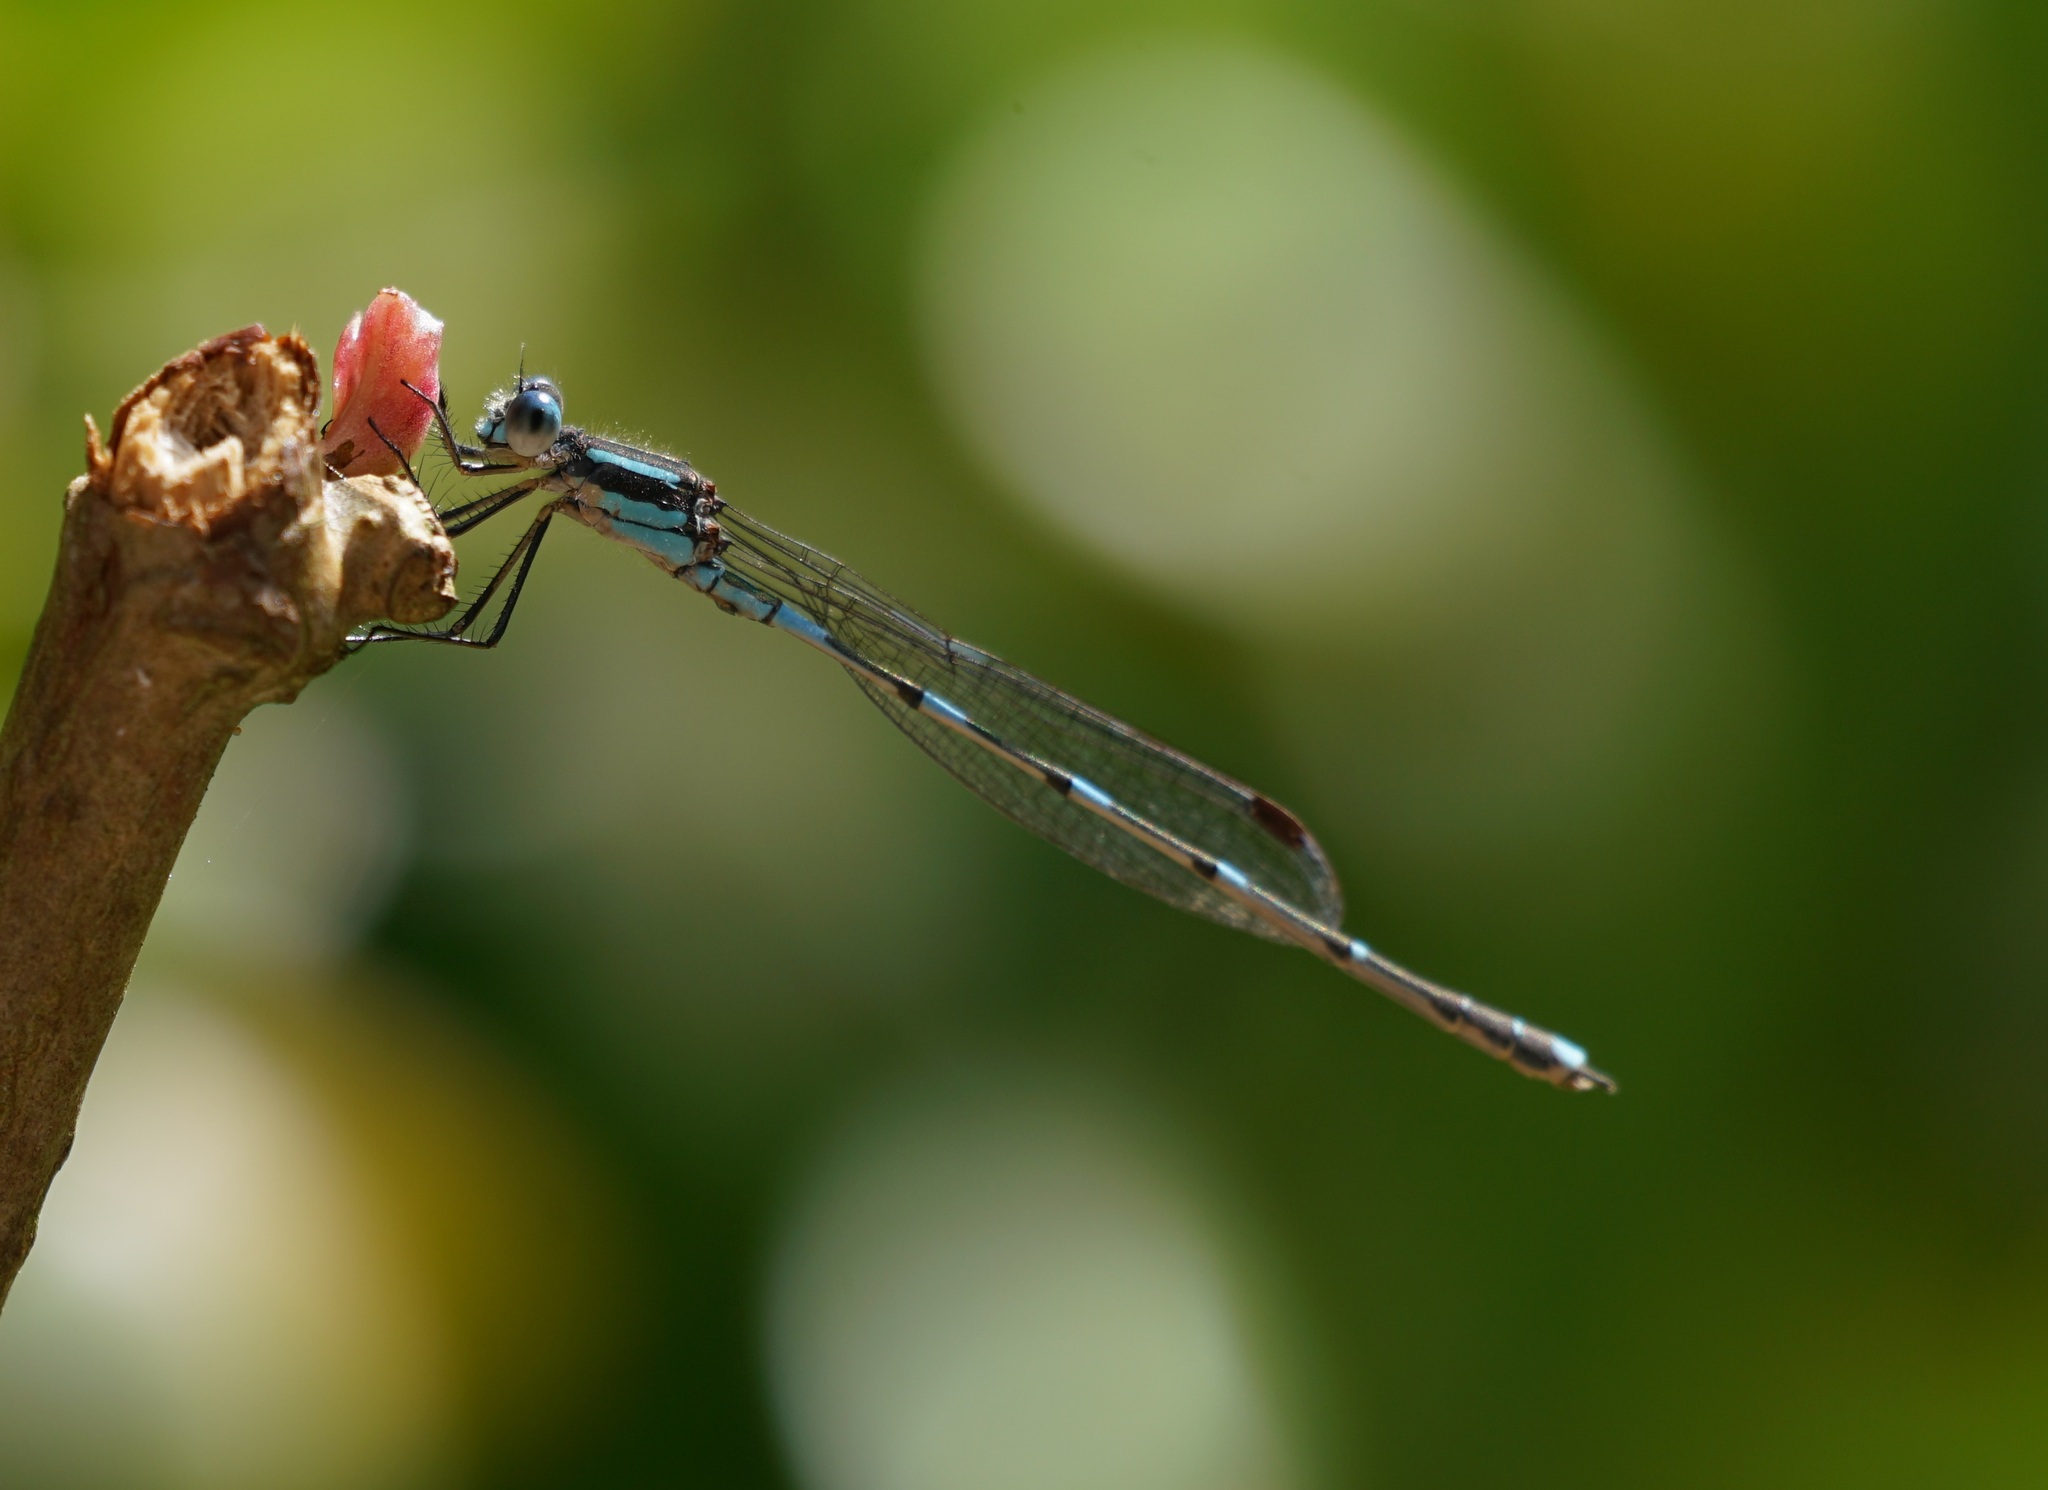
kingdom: Animalia
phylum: Arthropoda
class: Insecta
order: Odonata
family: Lestidae
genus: Austrolestes
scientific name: Austrolestes leda
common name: Wandering ringtail
